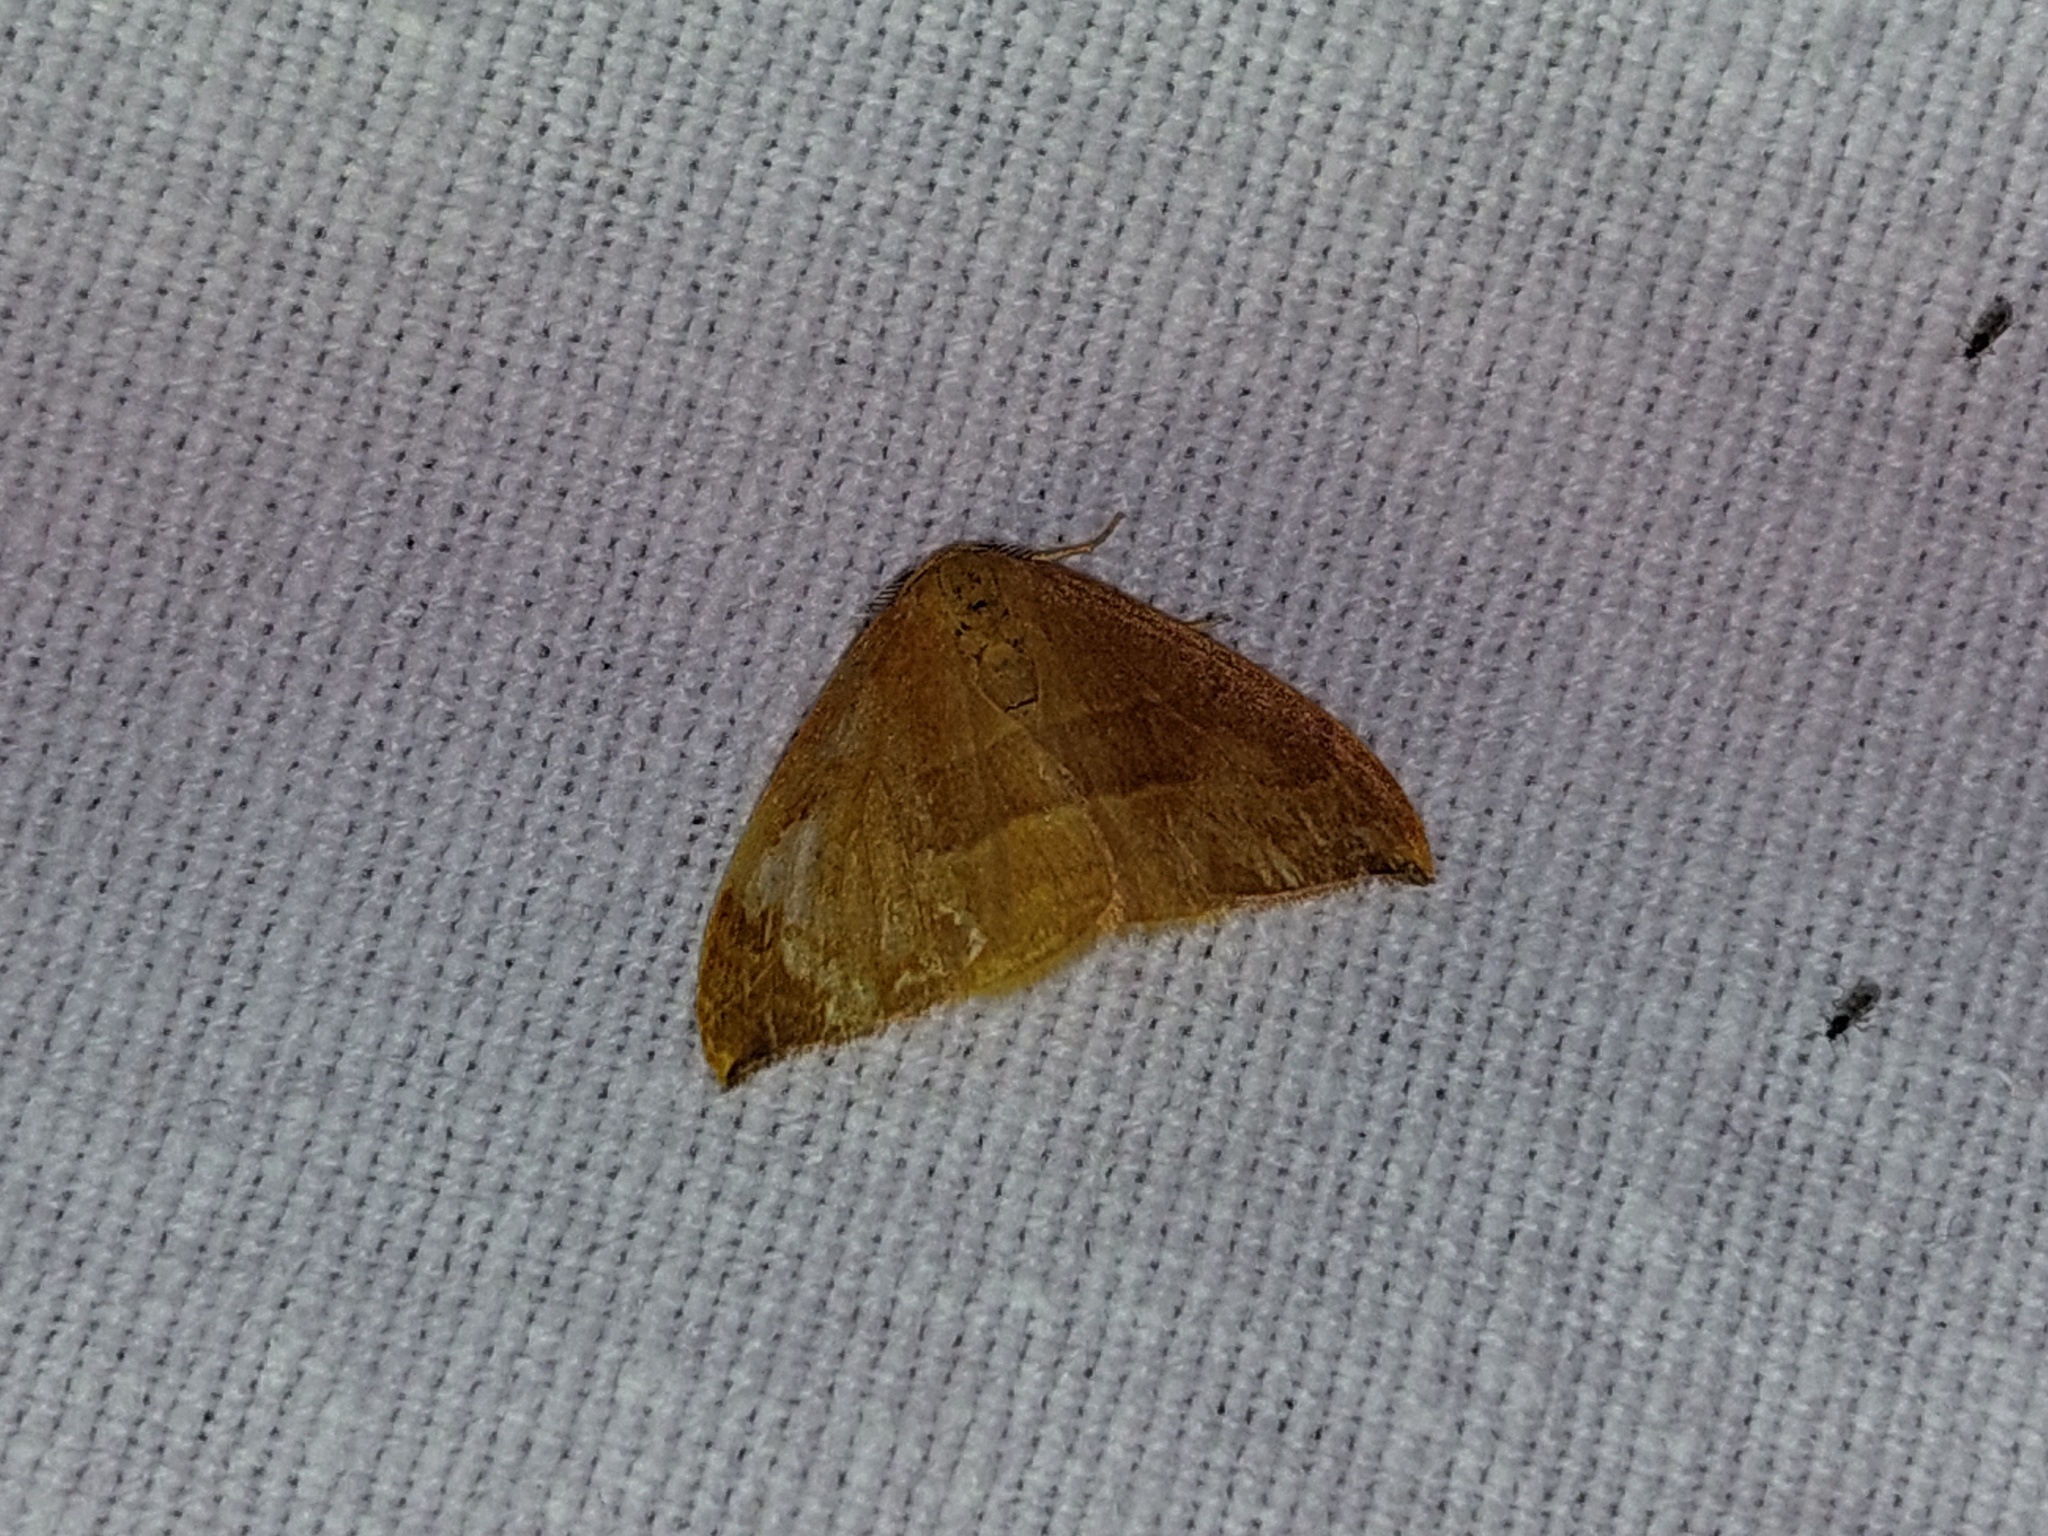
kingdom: Animalia
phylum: Arthropoda
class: Insecta
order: Lepidoptera
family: Drepanidae
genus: Watsonalla
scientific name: Watsonalla cultraria
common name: Barred hook-tip
